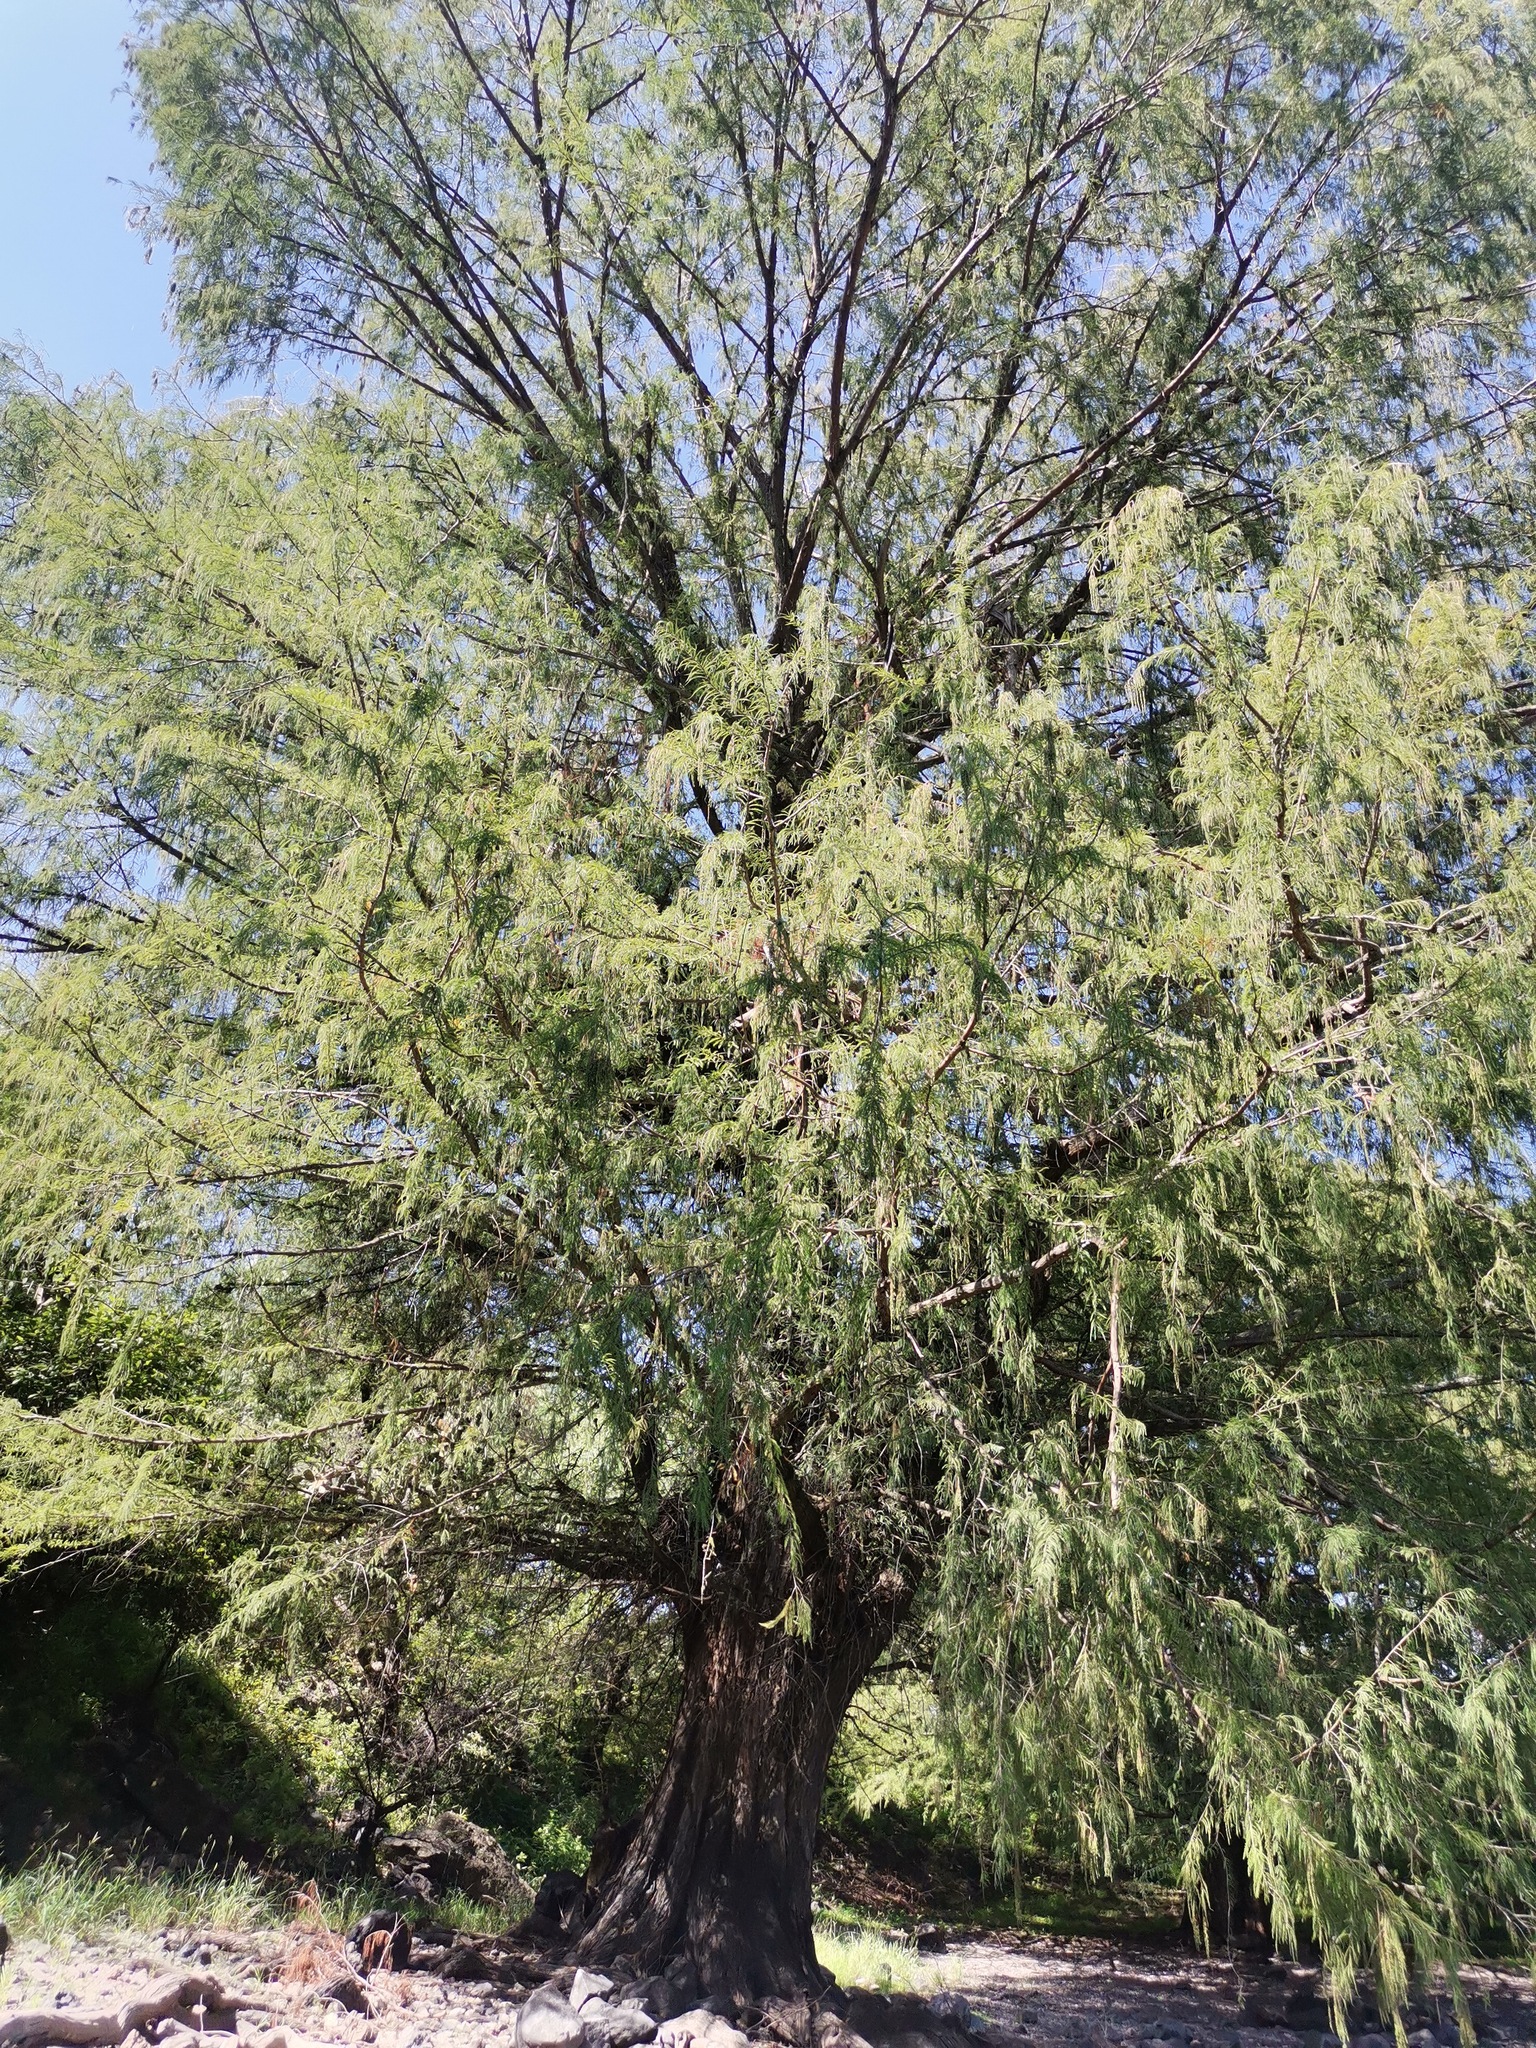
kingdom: Plantae
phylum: Tracheophyta
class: Pinopsida
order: Pinales
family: Cupressaceae
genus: Taxodium
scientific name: Taxodium mucronatum
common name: Montezume bald cypress
